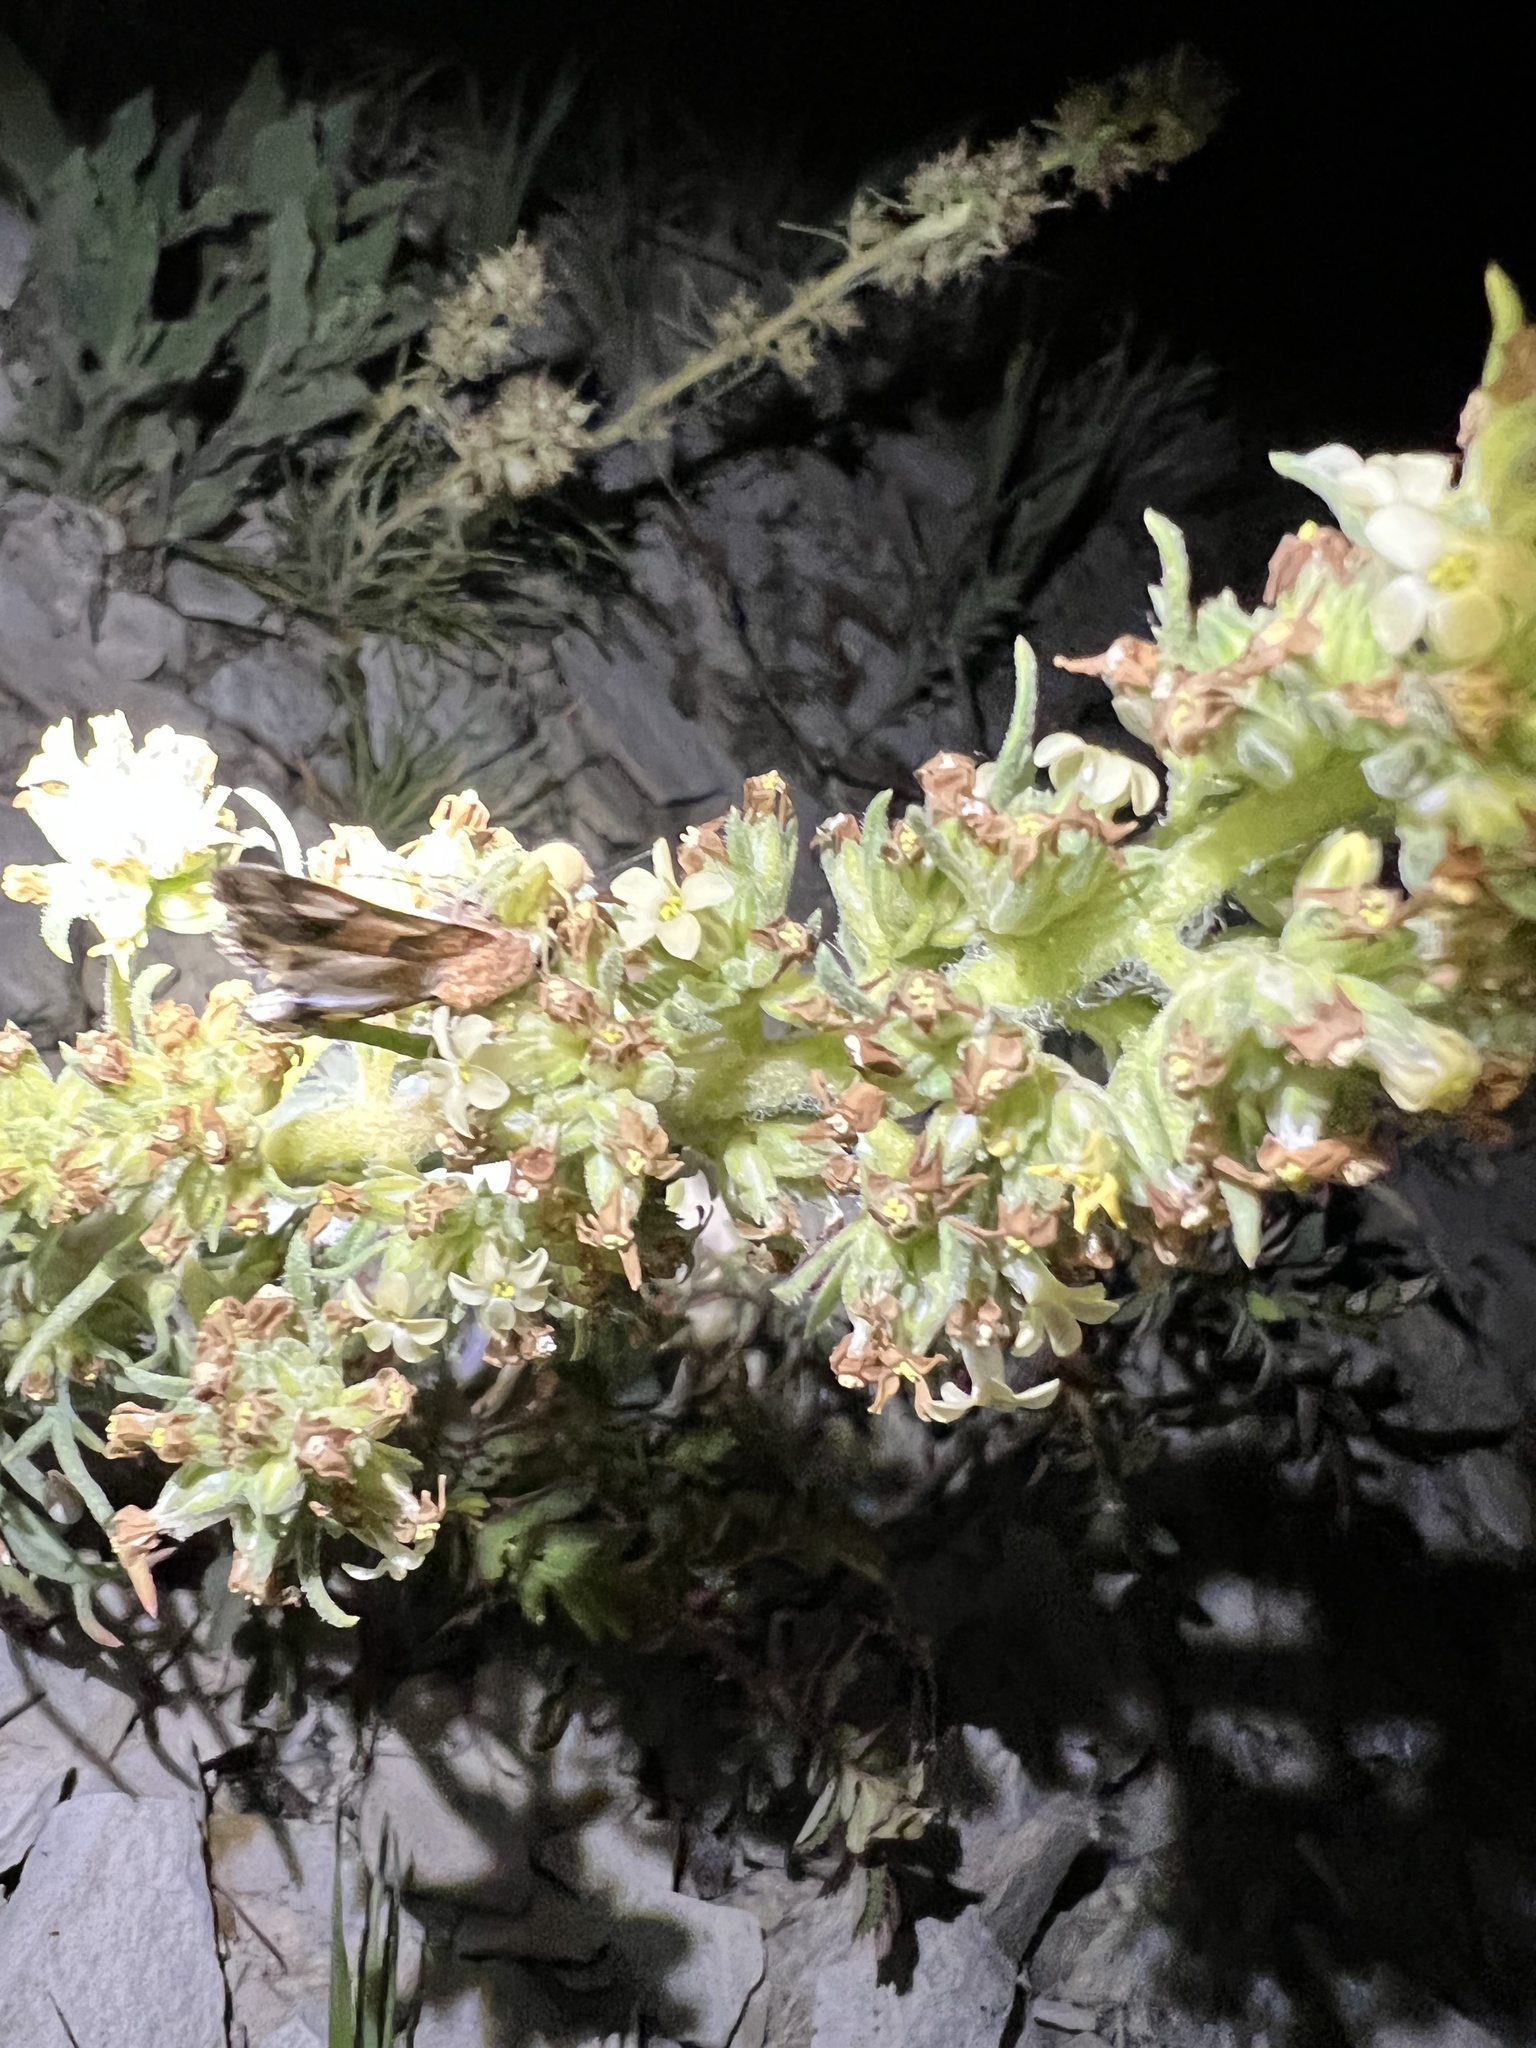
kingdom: Plantae
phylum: Tracheophyta
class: Magnoliopsida
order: Ericales
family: Polemoniaceae
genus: Ipomopsis
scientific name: Ipomopsis spicata
